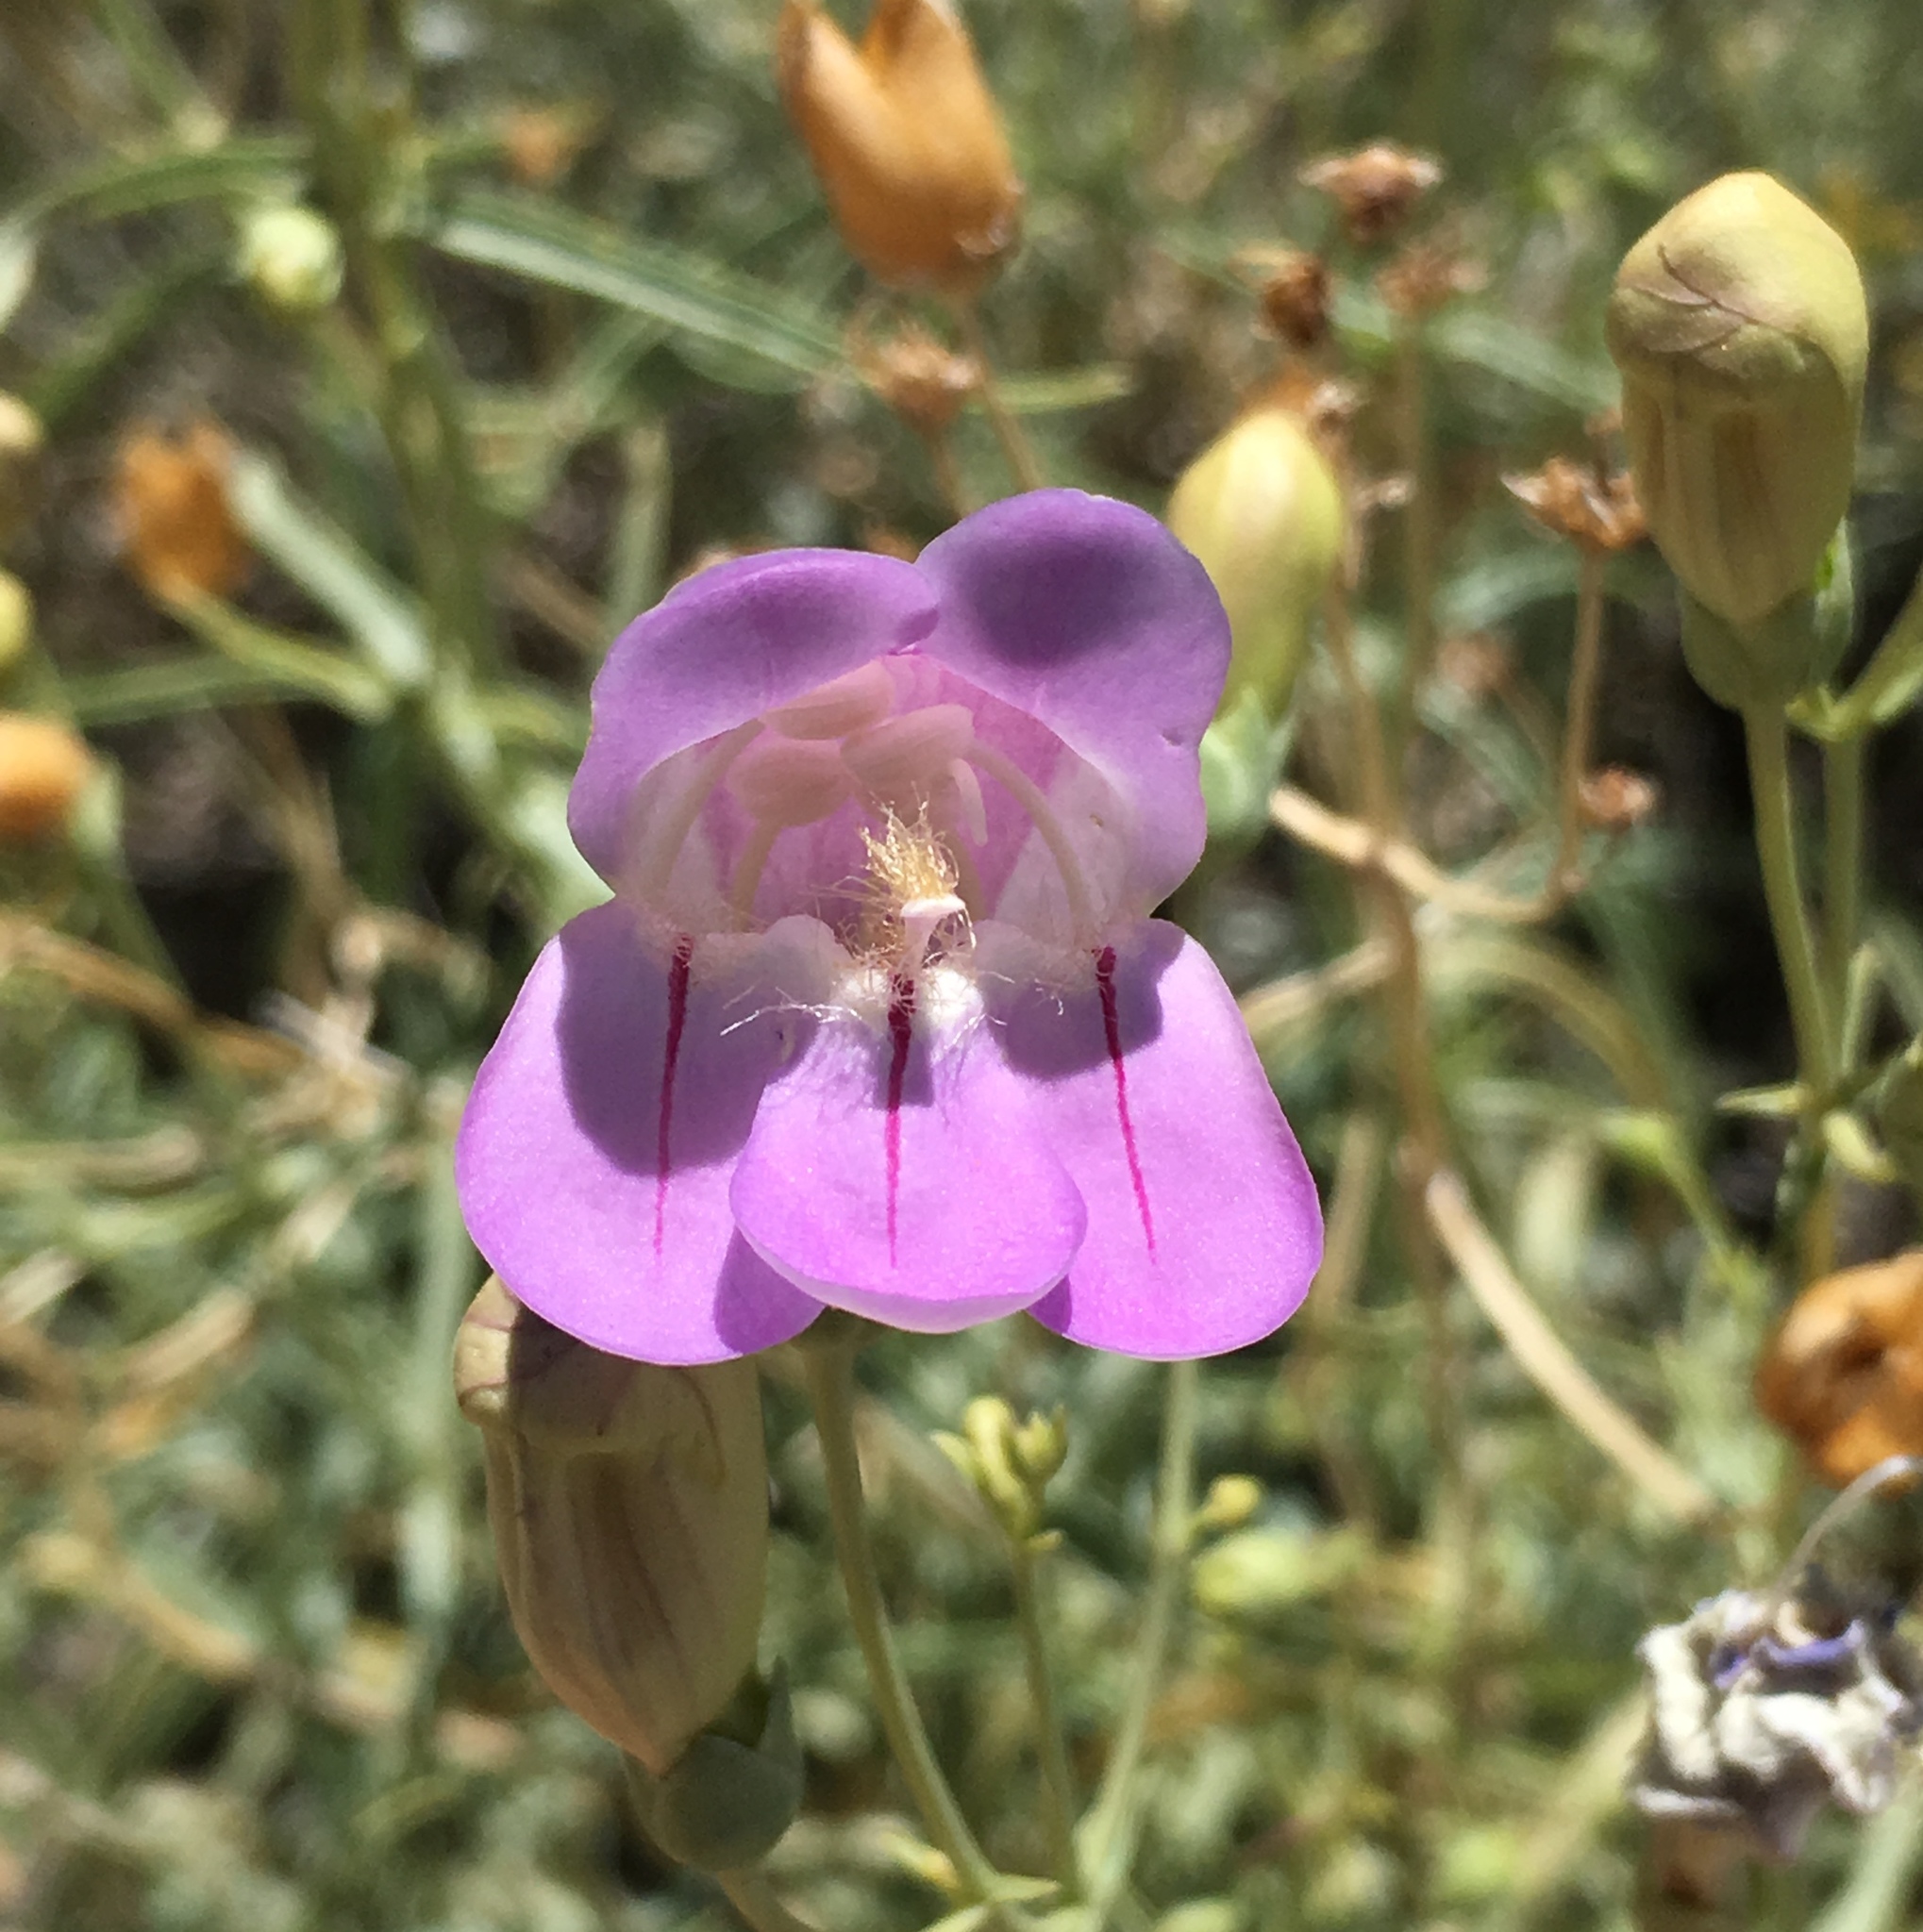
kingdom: Plantae
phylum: Tracheophyta
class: Magnoliopsida
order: Lamiales
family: Plantaginaceae
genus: Penstemon
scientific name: Penstemon fruticiformis
